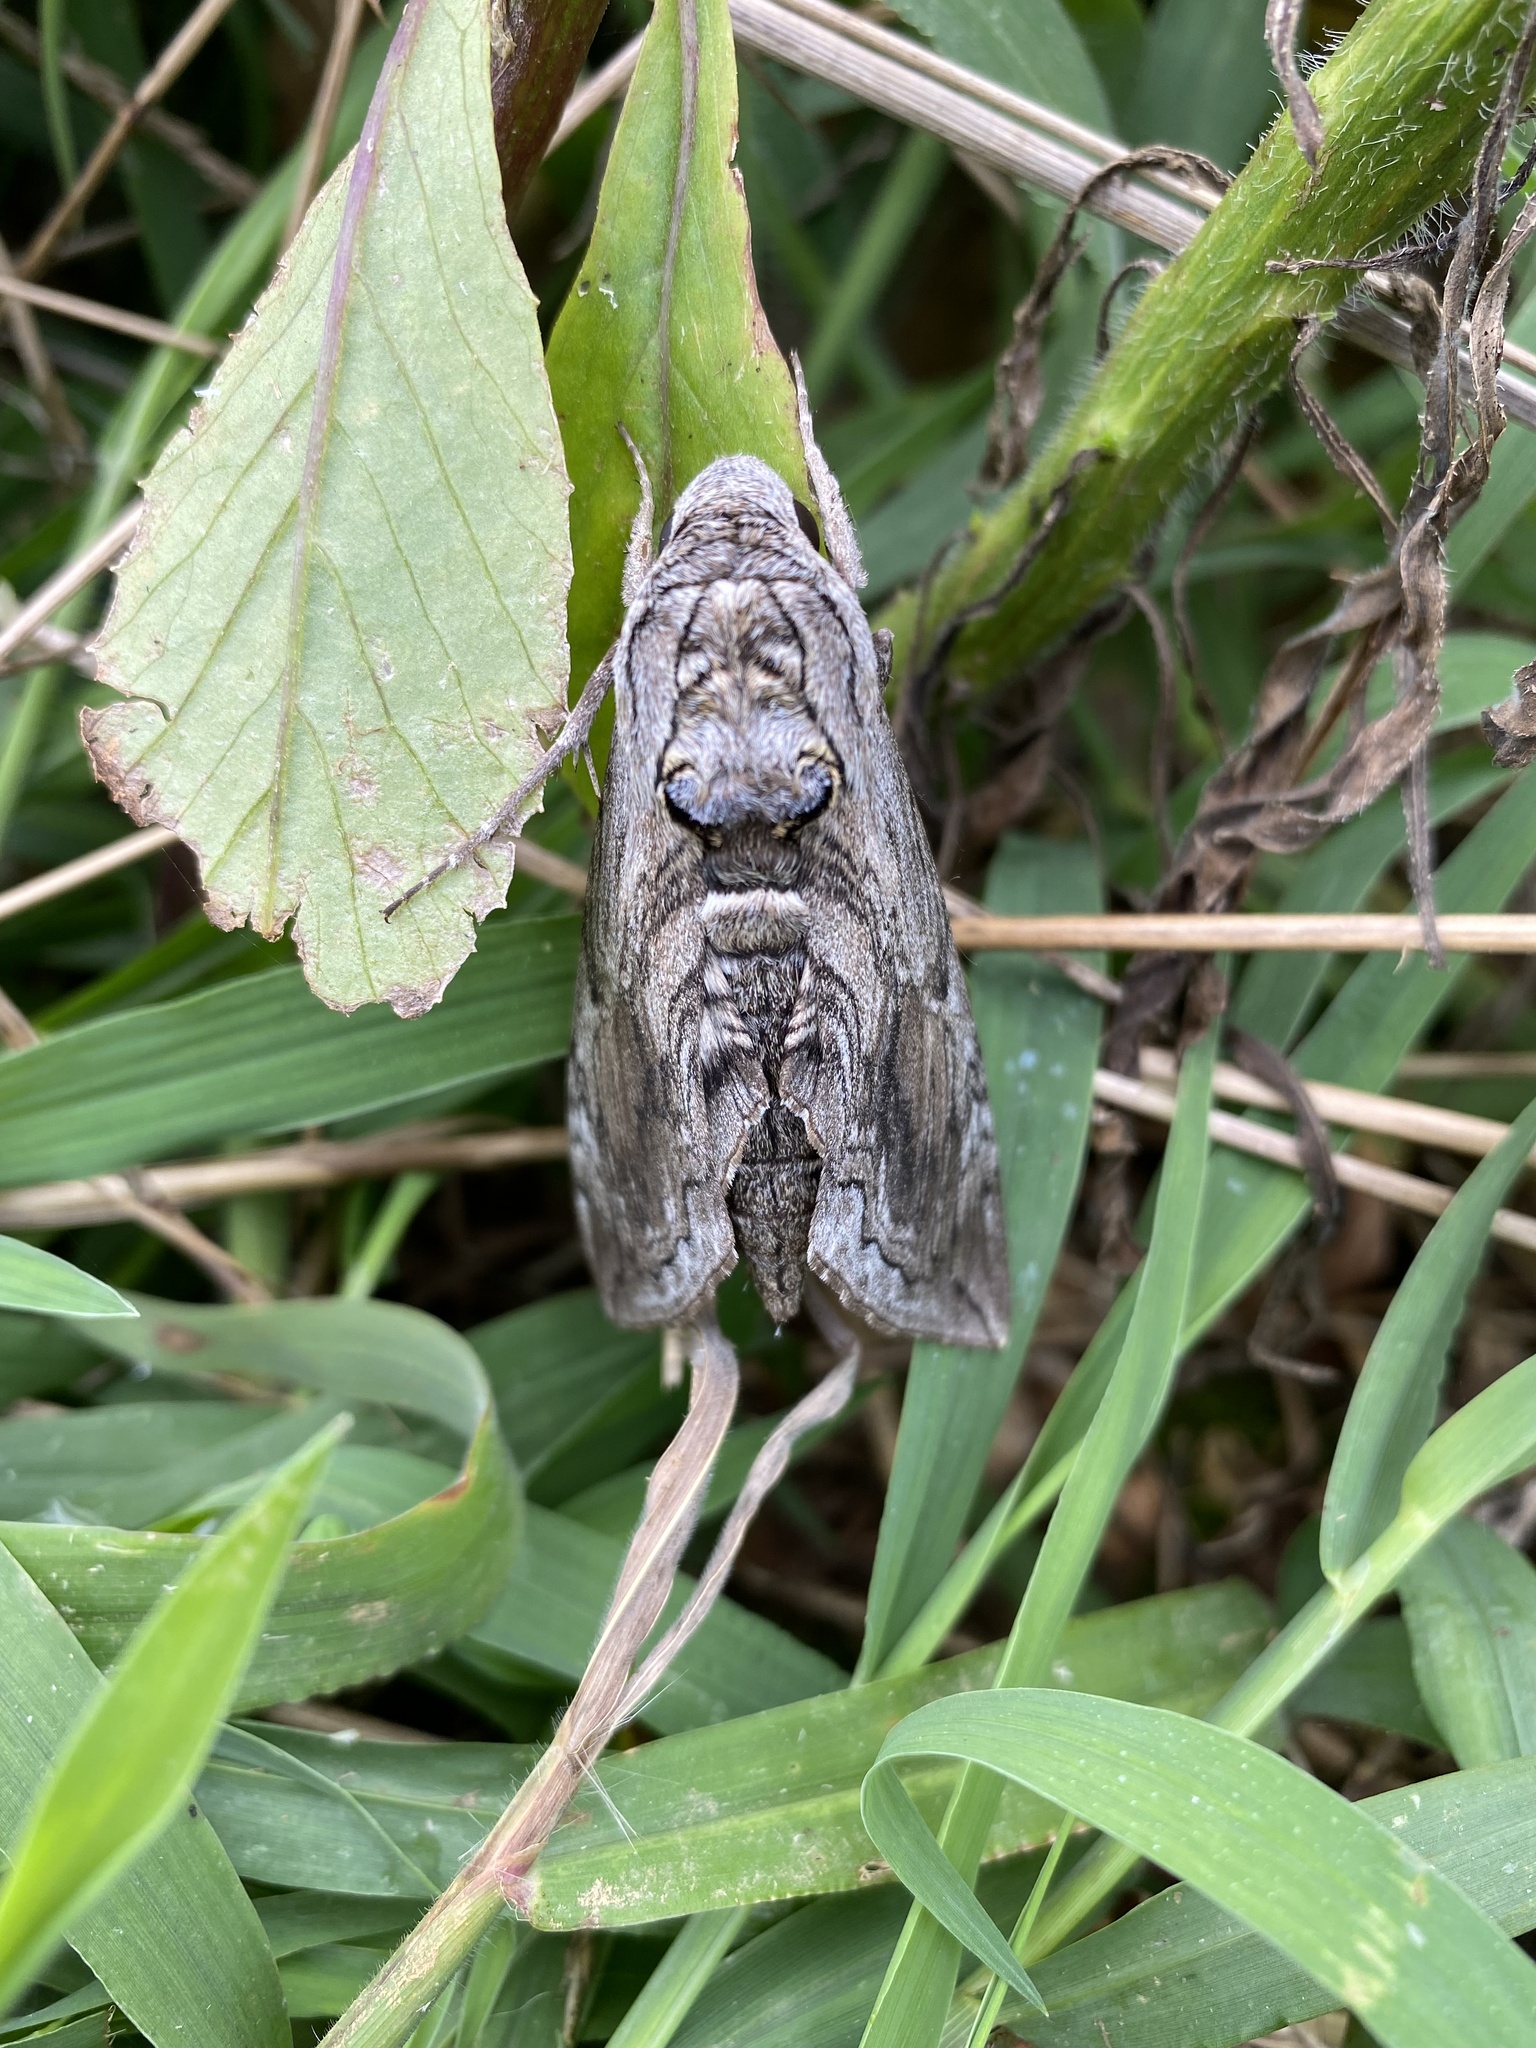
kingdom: Animalia
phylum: Arthropoda
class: Insecta
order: Lepidoptera
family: Sphingidae
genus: Manduca
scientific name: Manduca quinquemaculatus
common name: Five-spotted hawk-moth
